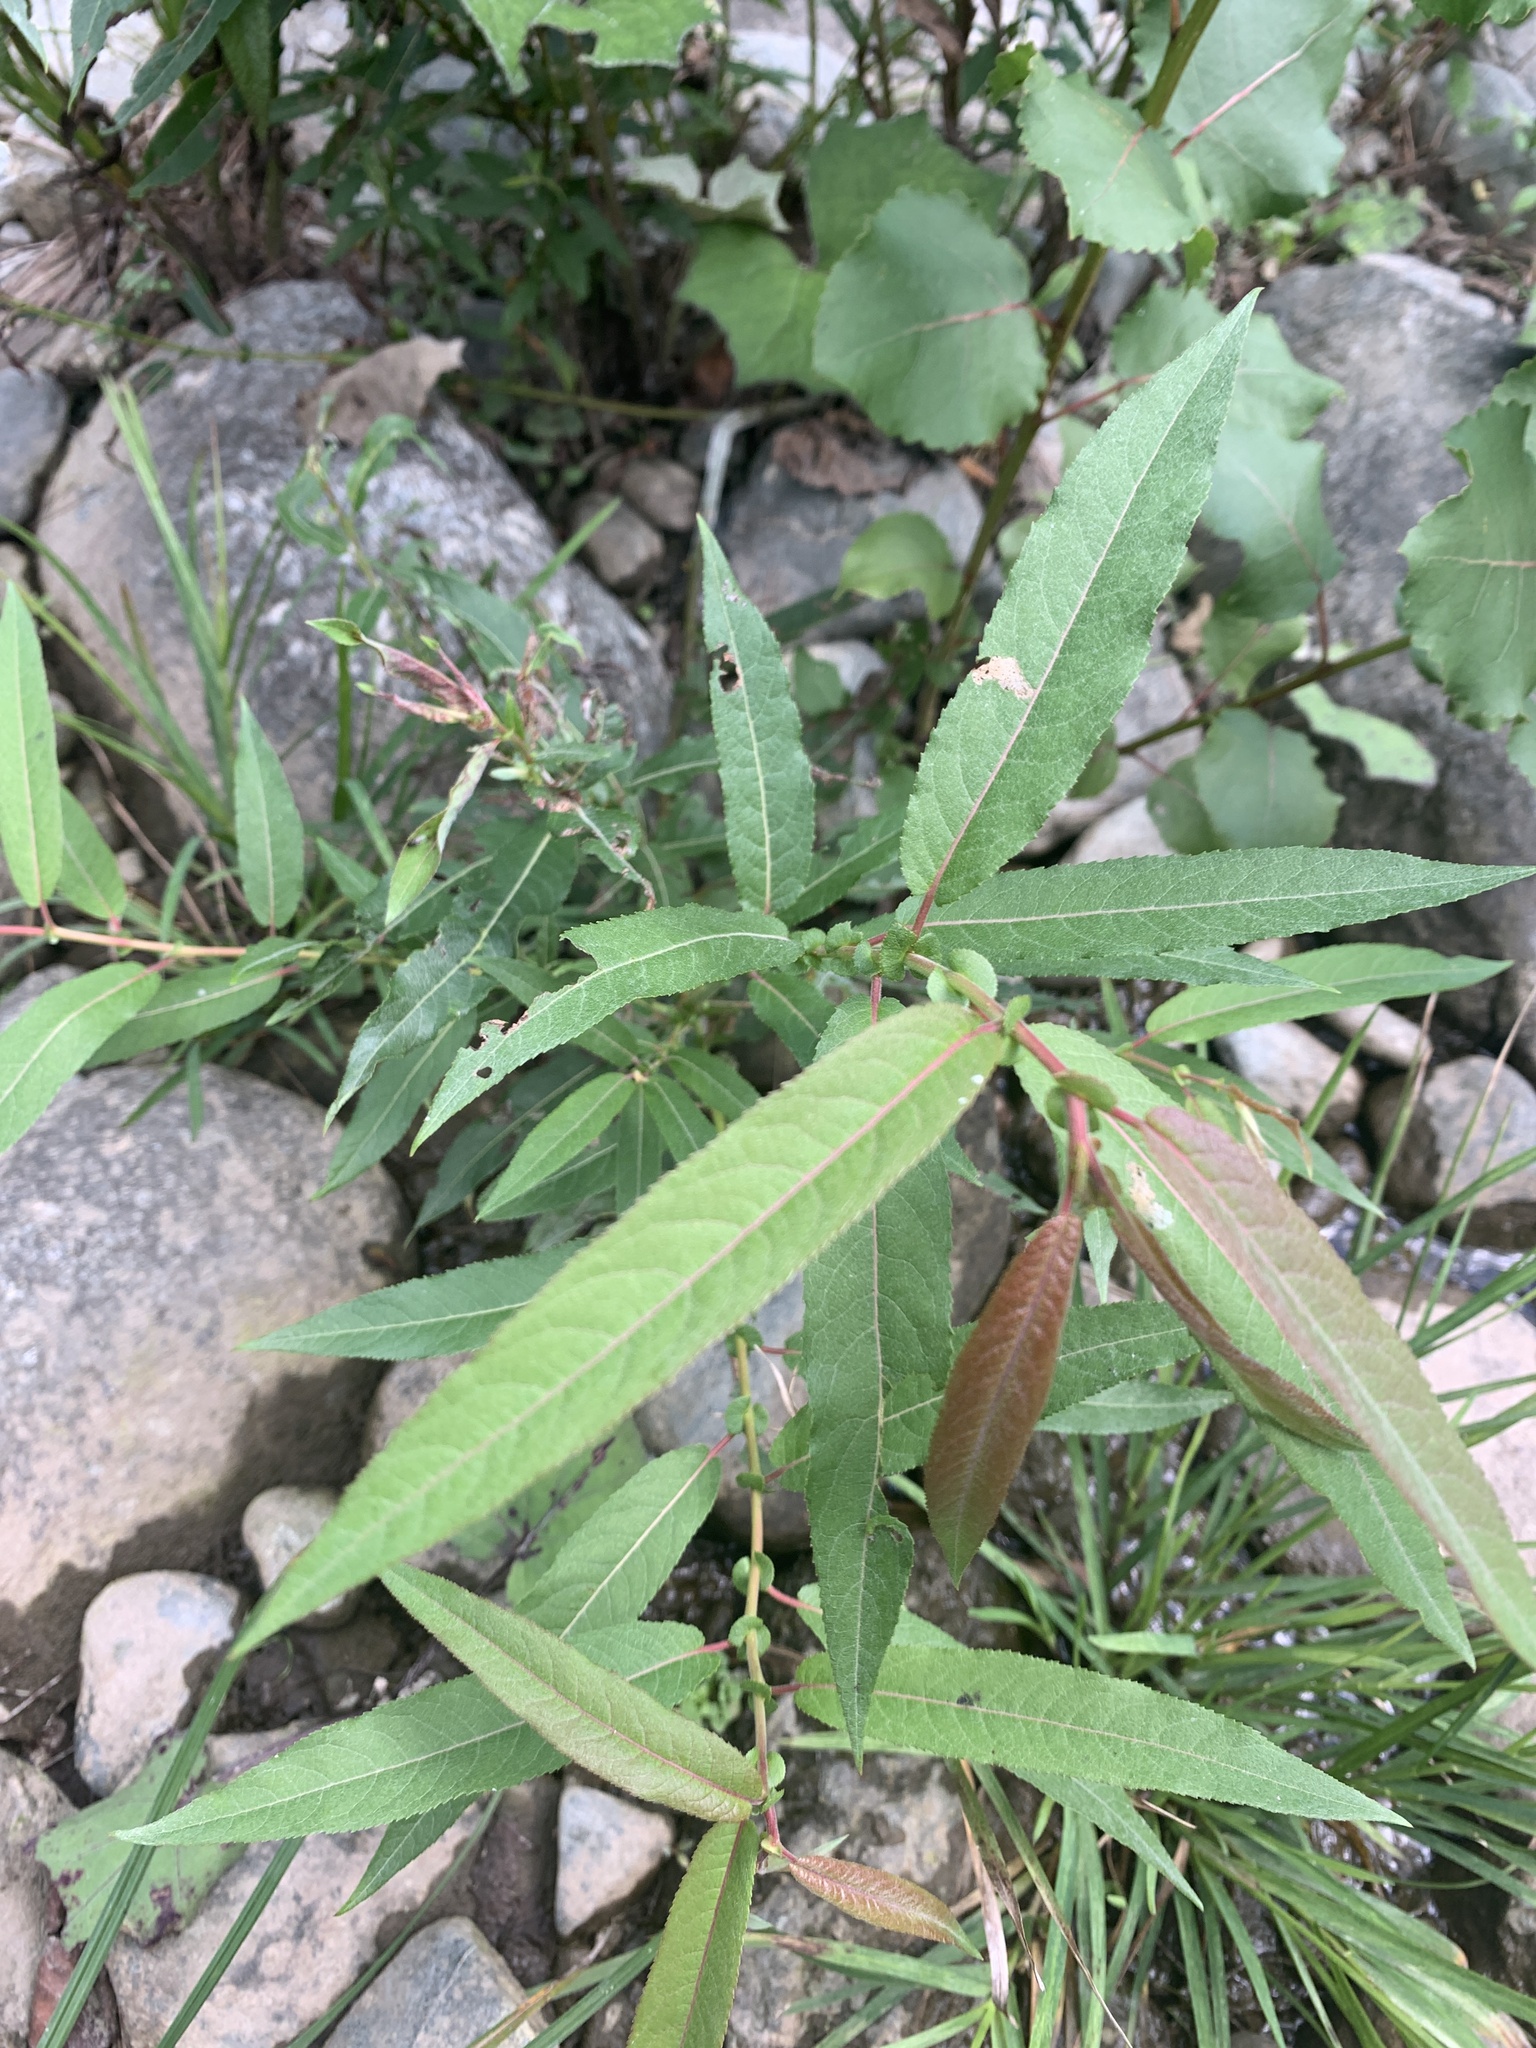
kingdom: Plantae
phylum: Tracheophyta
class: Magnoliopsida
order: Malpighiales
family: Salicaceae
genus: Salix
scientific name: Salix eriocephala
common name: Heart-leaved willow
